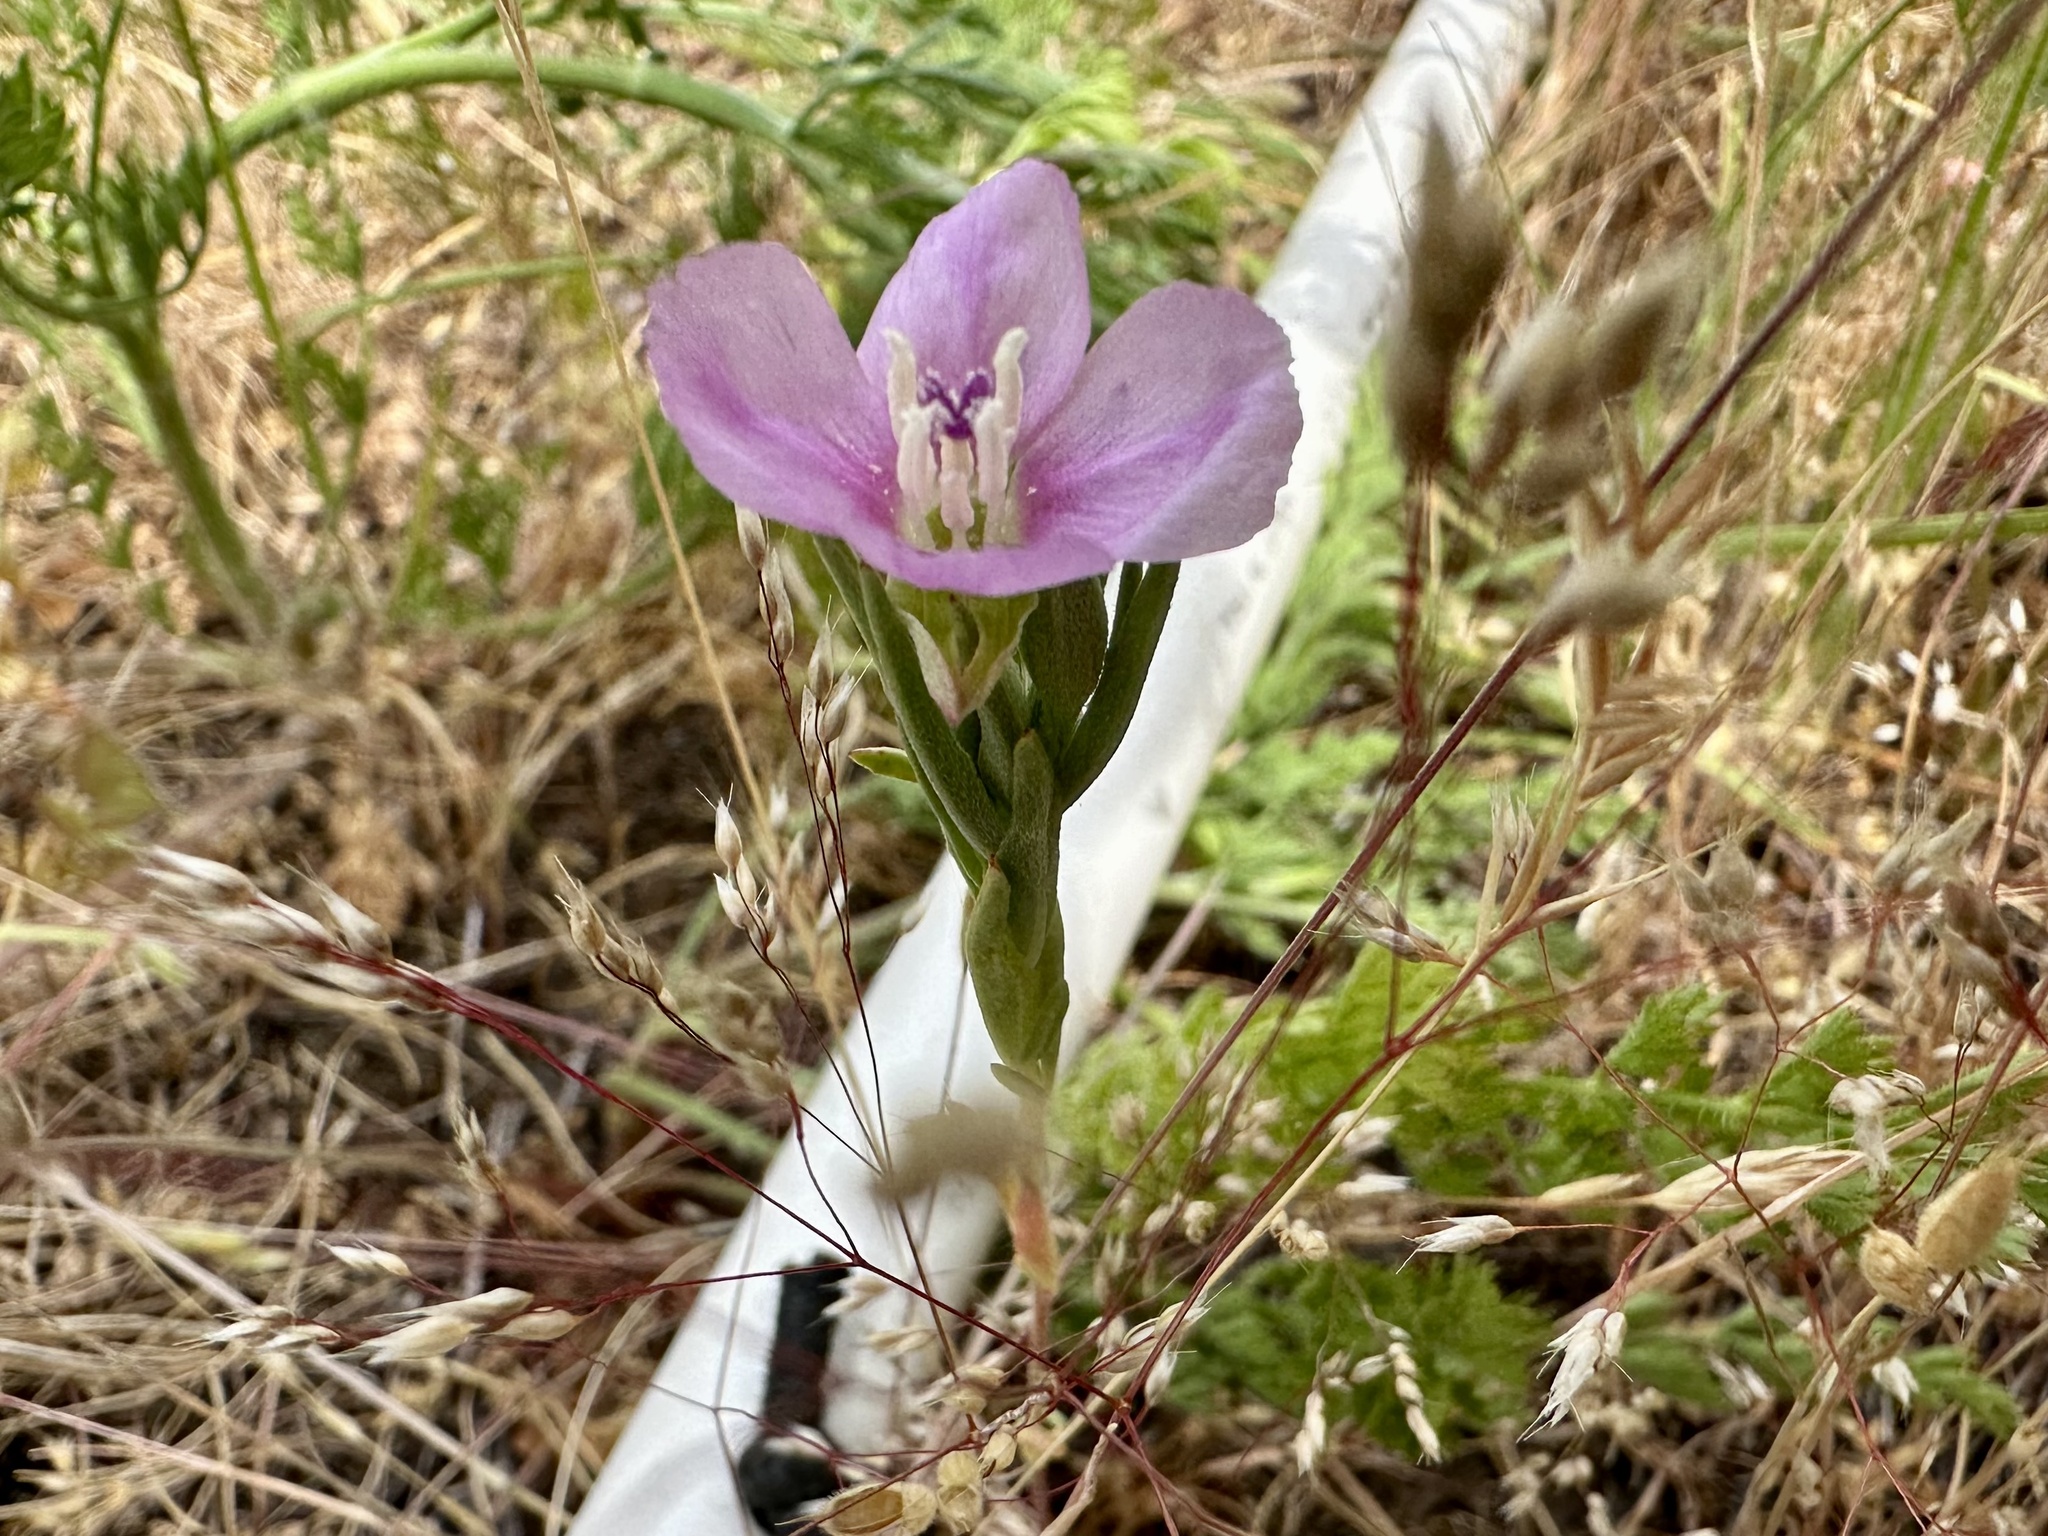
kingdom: Plantae
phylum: Tracheophyta
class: Magnoliopsida
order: Myrtales
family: Onagraceae
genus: Clarkia
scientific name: Clarkia purpurea
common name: Purple clarkia
